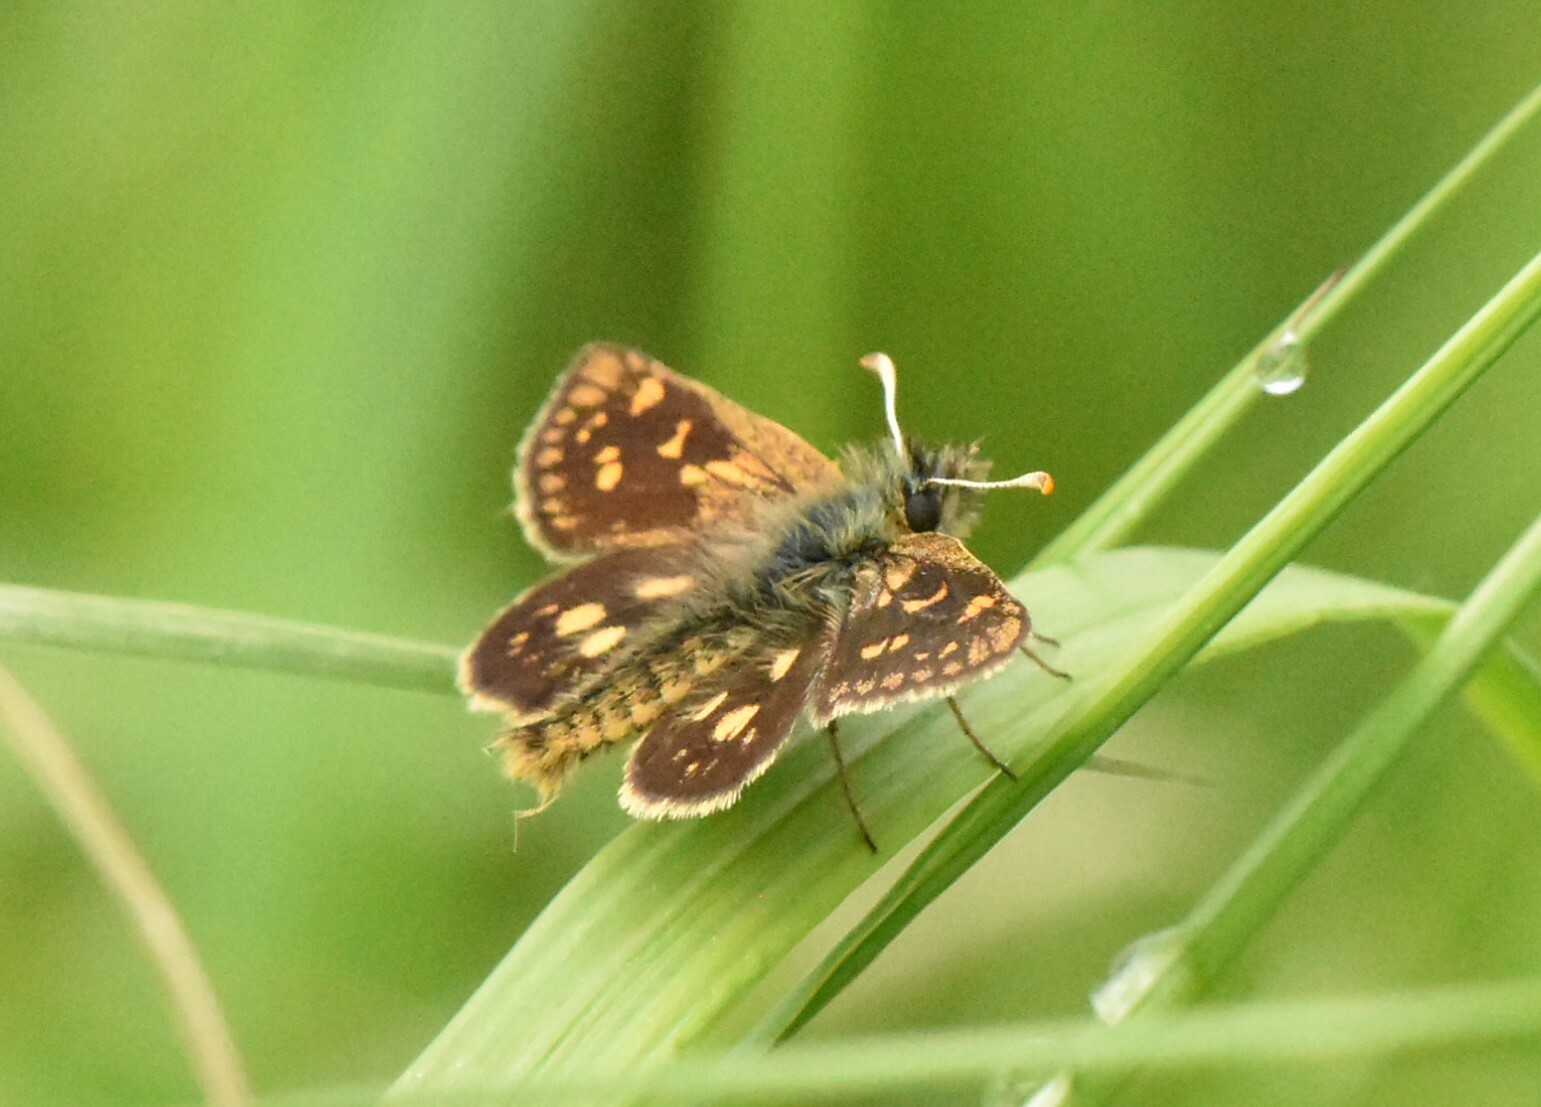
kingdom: Animalia
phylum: Arthropoda
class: Insecta
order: Lepidoptera
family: Hesperiidae
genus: Carterocephalus
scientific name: Carterocephalus palaemon
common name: Chequered skipper
